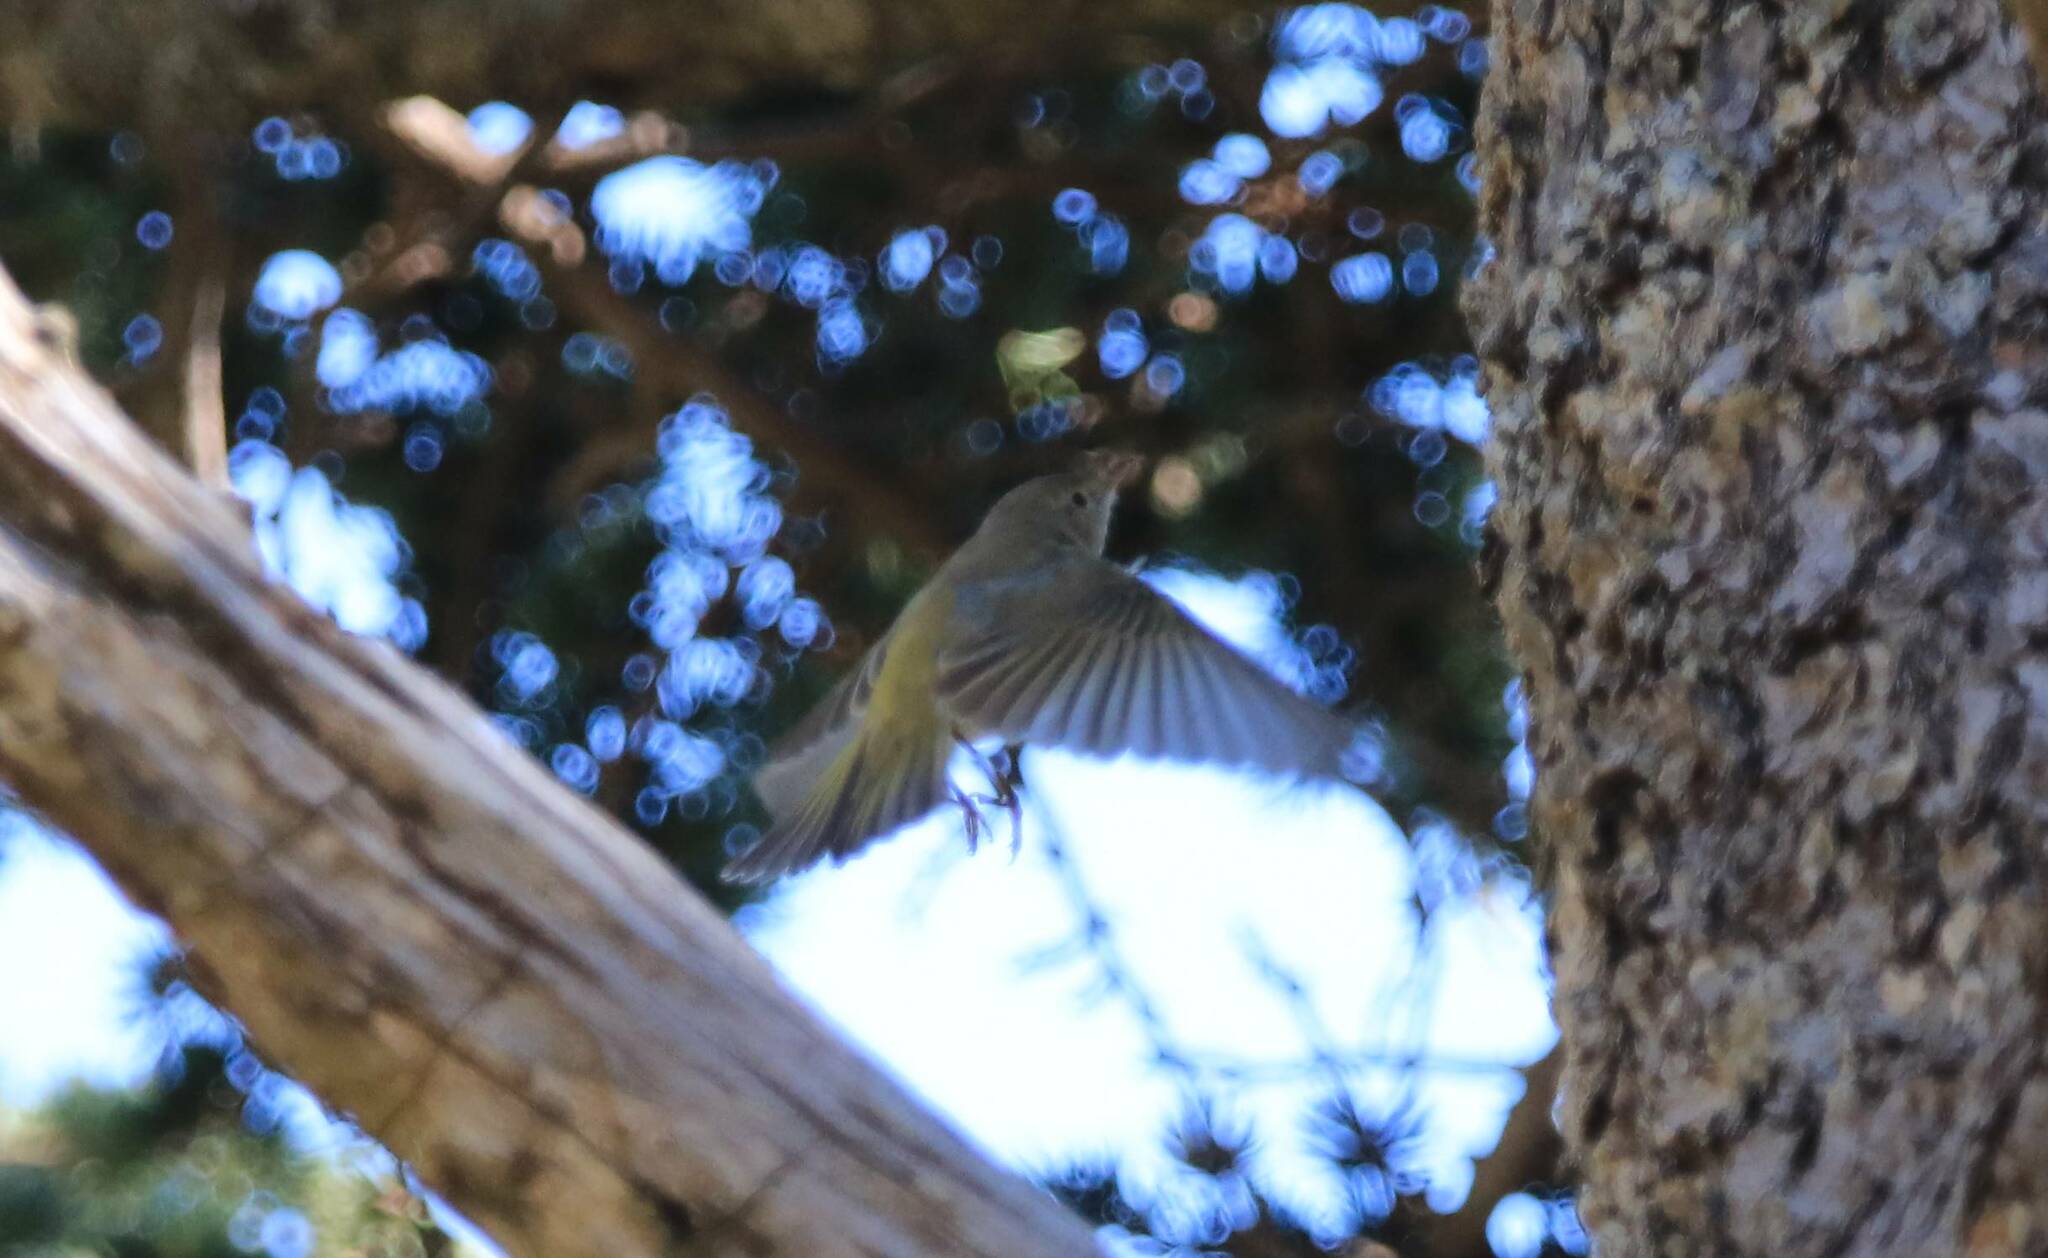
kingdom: Animalia
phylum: Chordata
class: Aves
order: Passeriformes
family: Phylloscopidae
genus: Phylloscopus
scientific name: Phylloscopus bonelli
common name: Western bonelli's warbler
